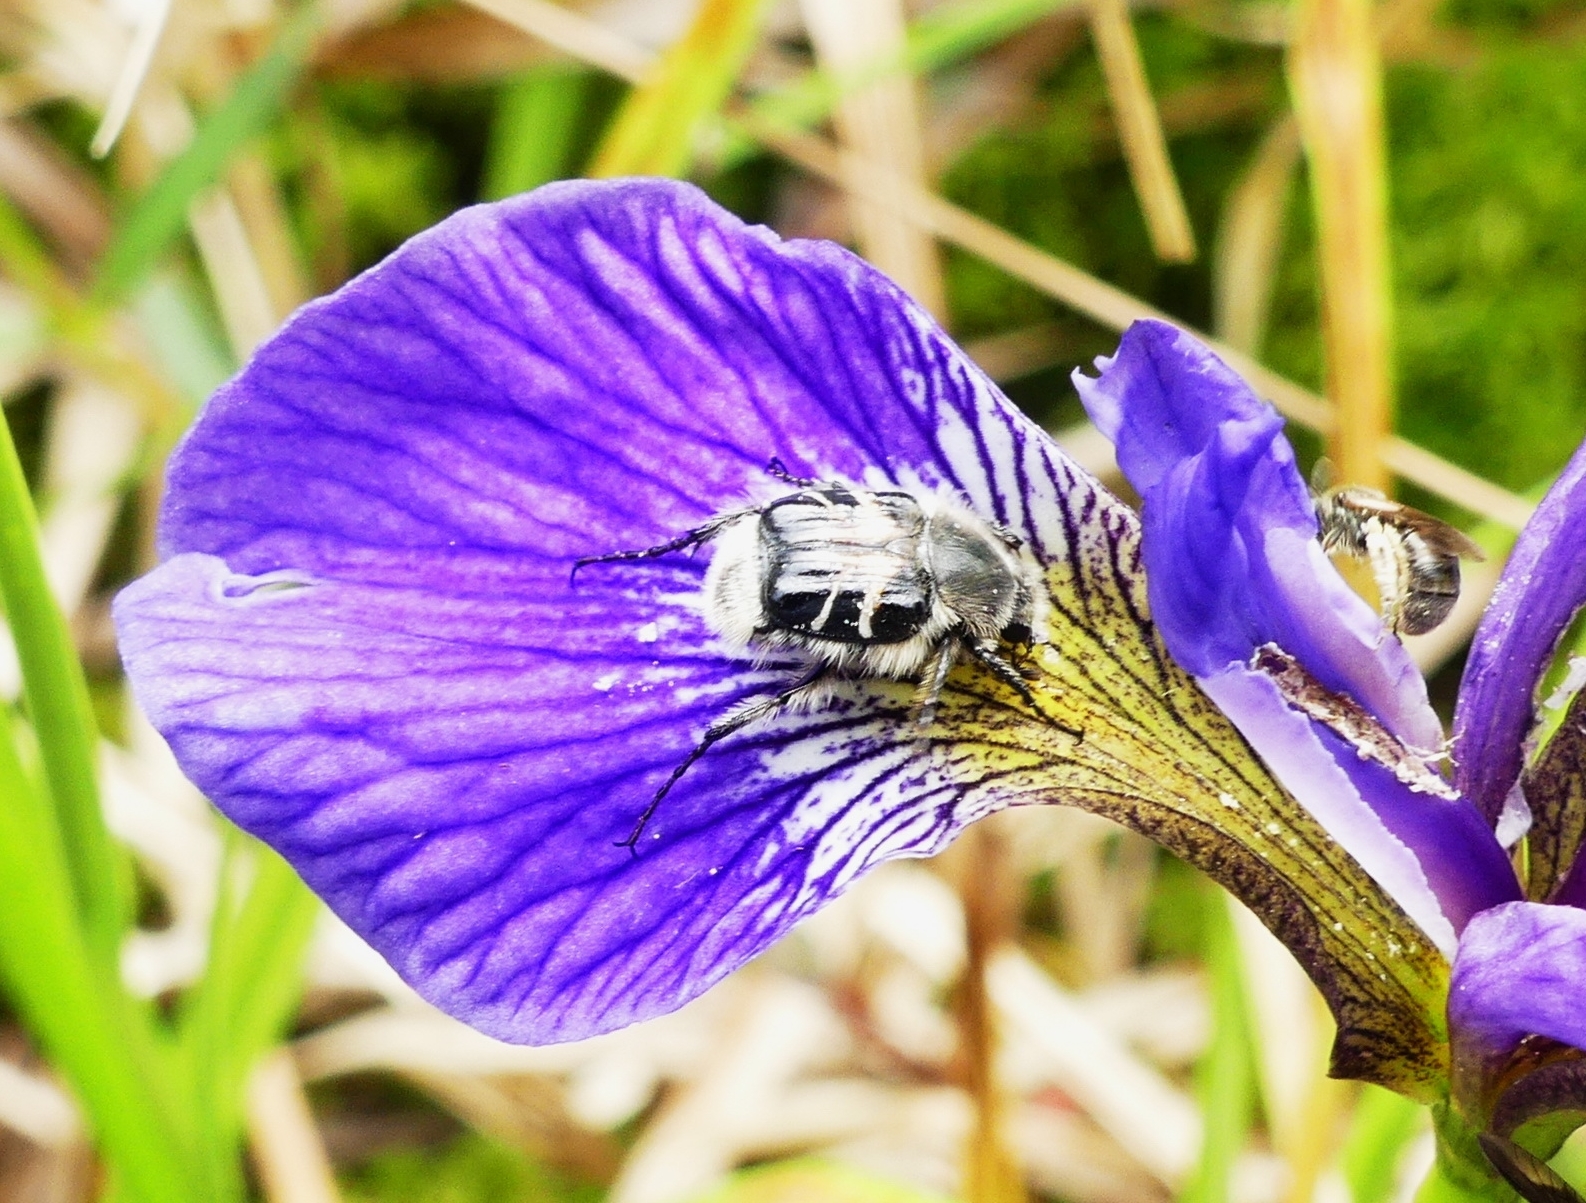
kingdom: Animalia
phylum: Arthropoda
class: Insecta
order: Coleoptera
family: Scarabaeidae
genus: Trichiotinus
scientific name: Trichiotinus assimilis
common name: Bee-mimic beetle
